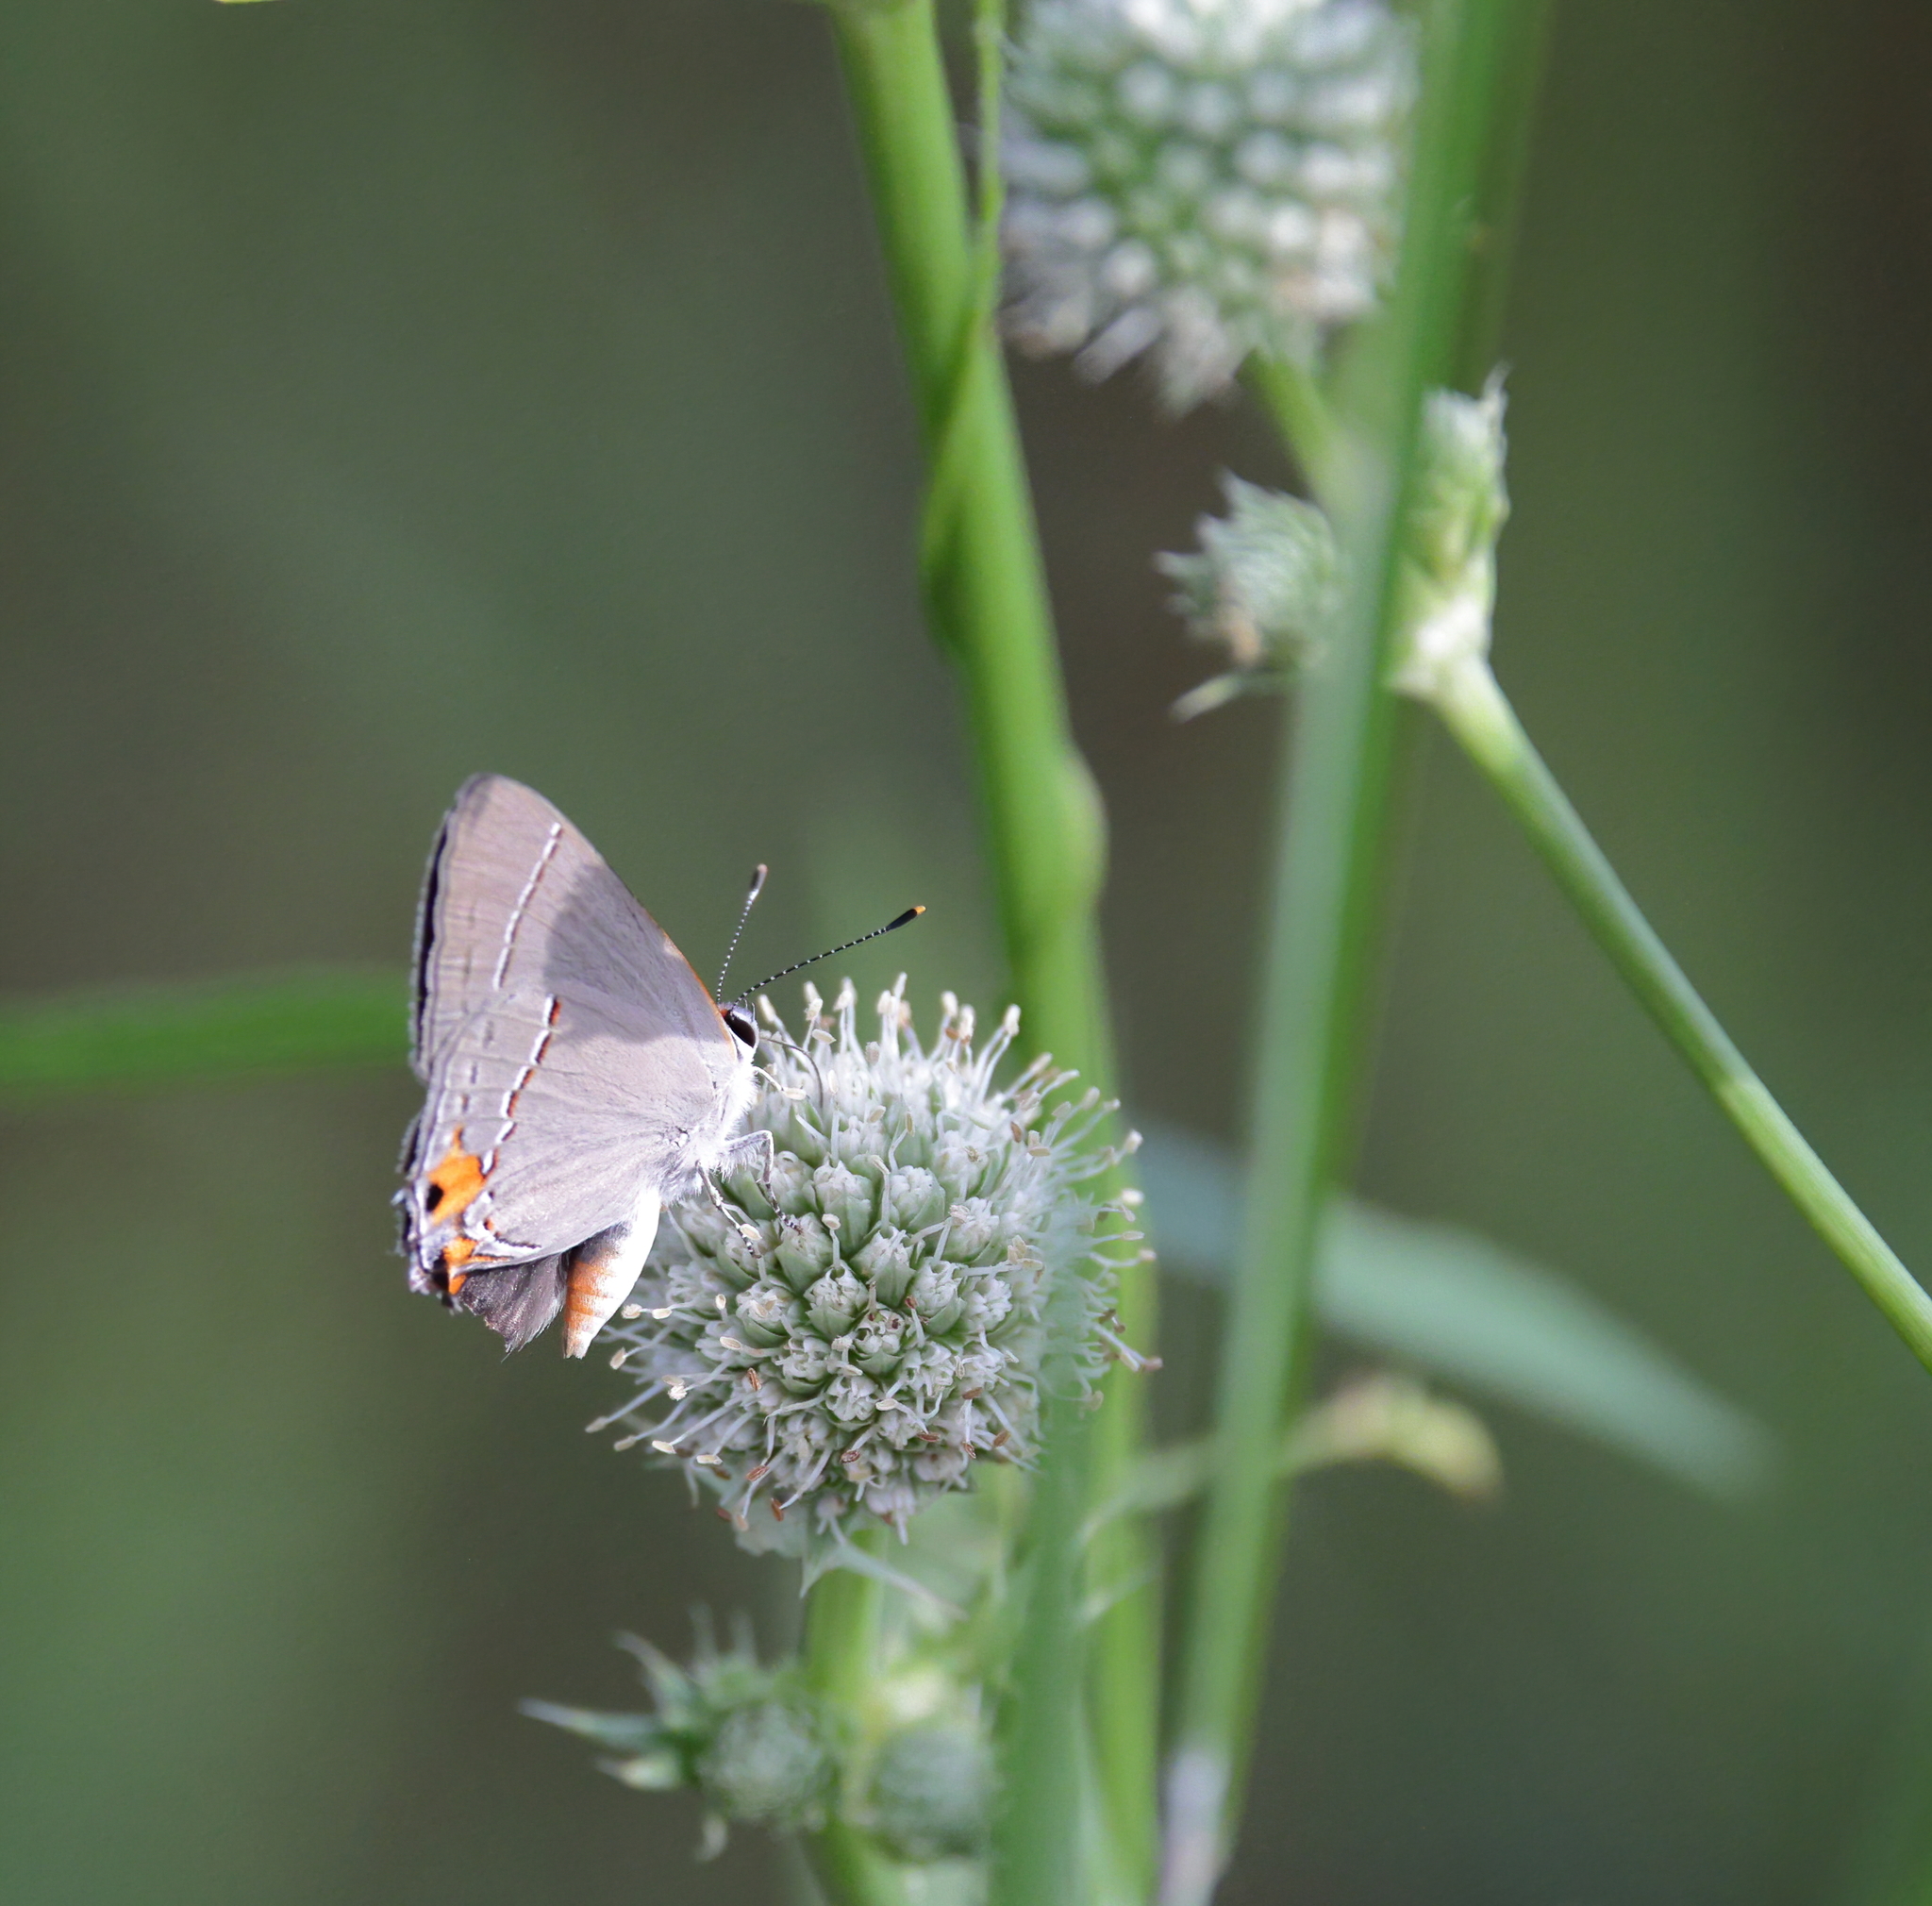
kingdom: Animalia
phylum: Arthropoda
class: Insecta
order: Lepidoptera
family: Lycaenidae
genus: Strymon
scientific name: Strymon melinus
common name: Gray hairstreak
